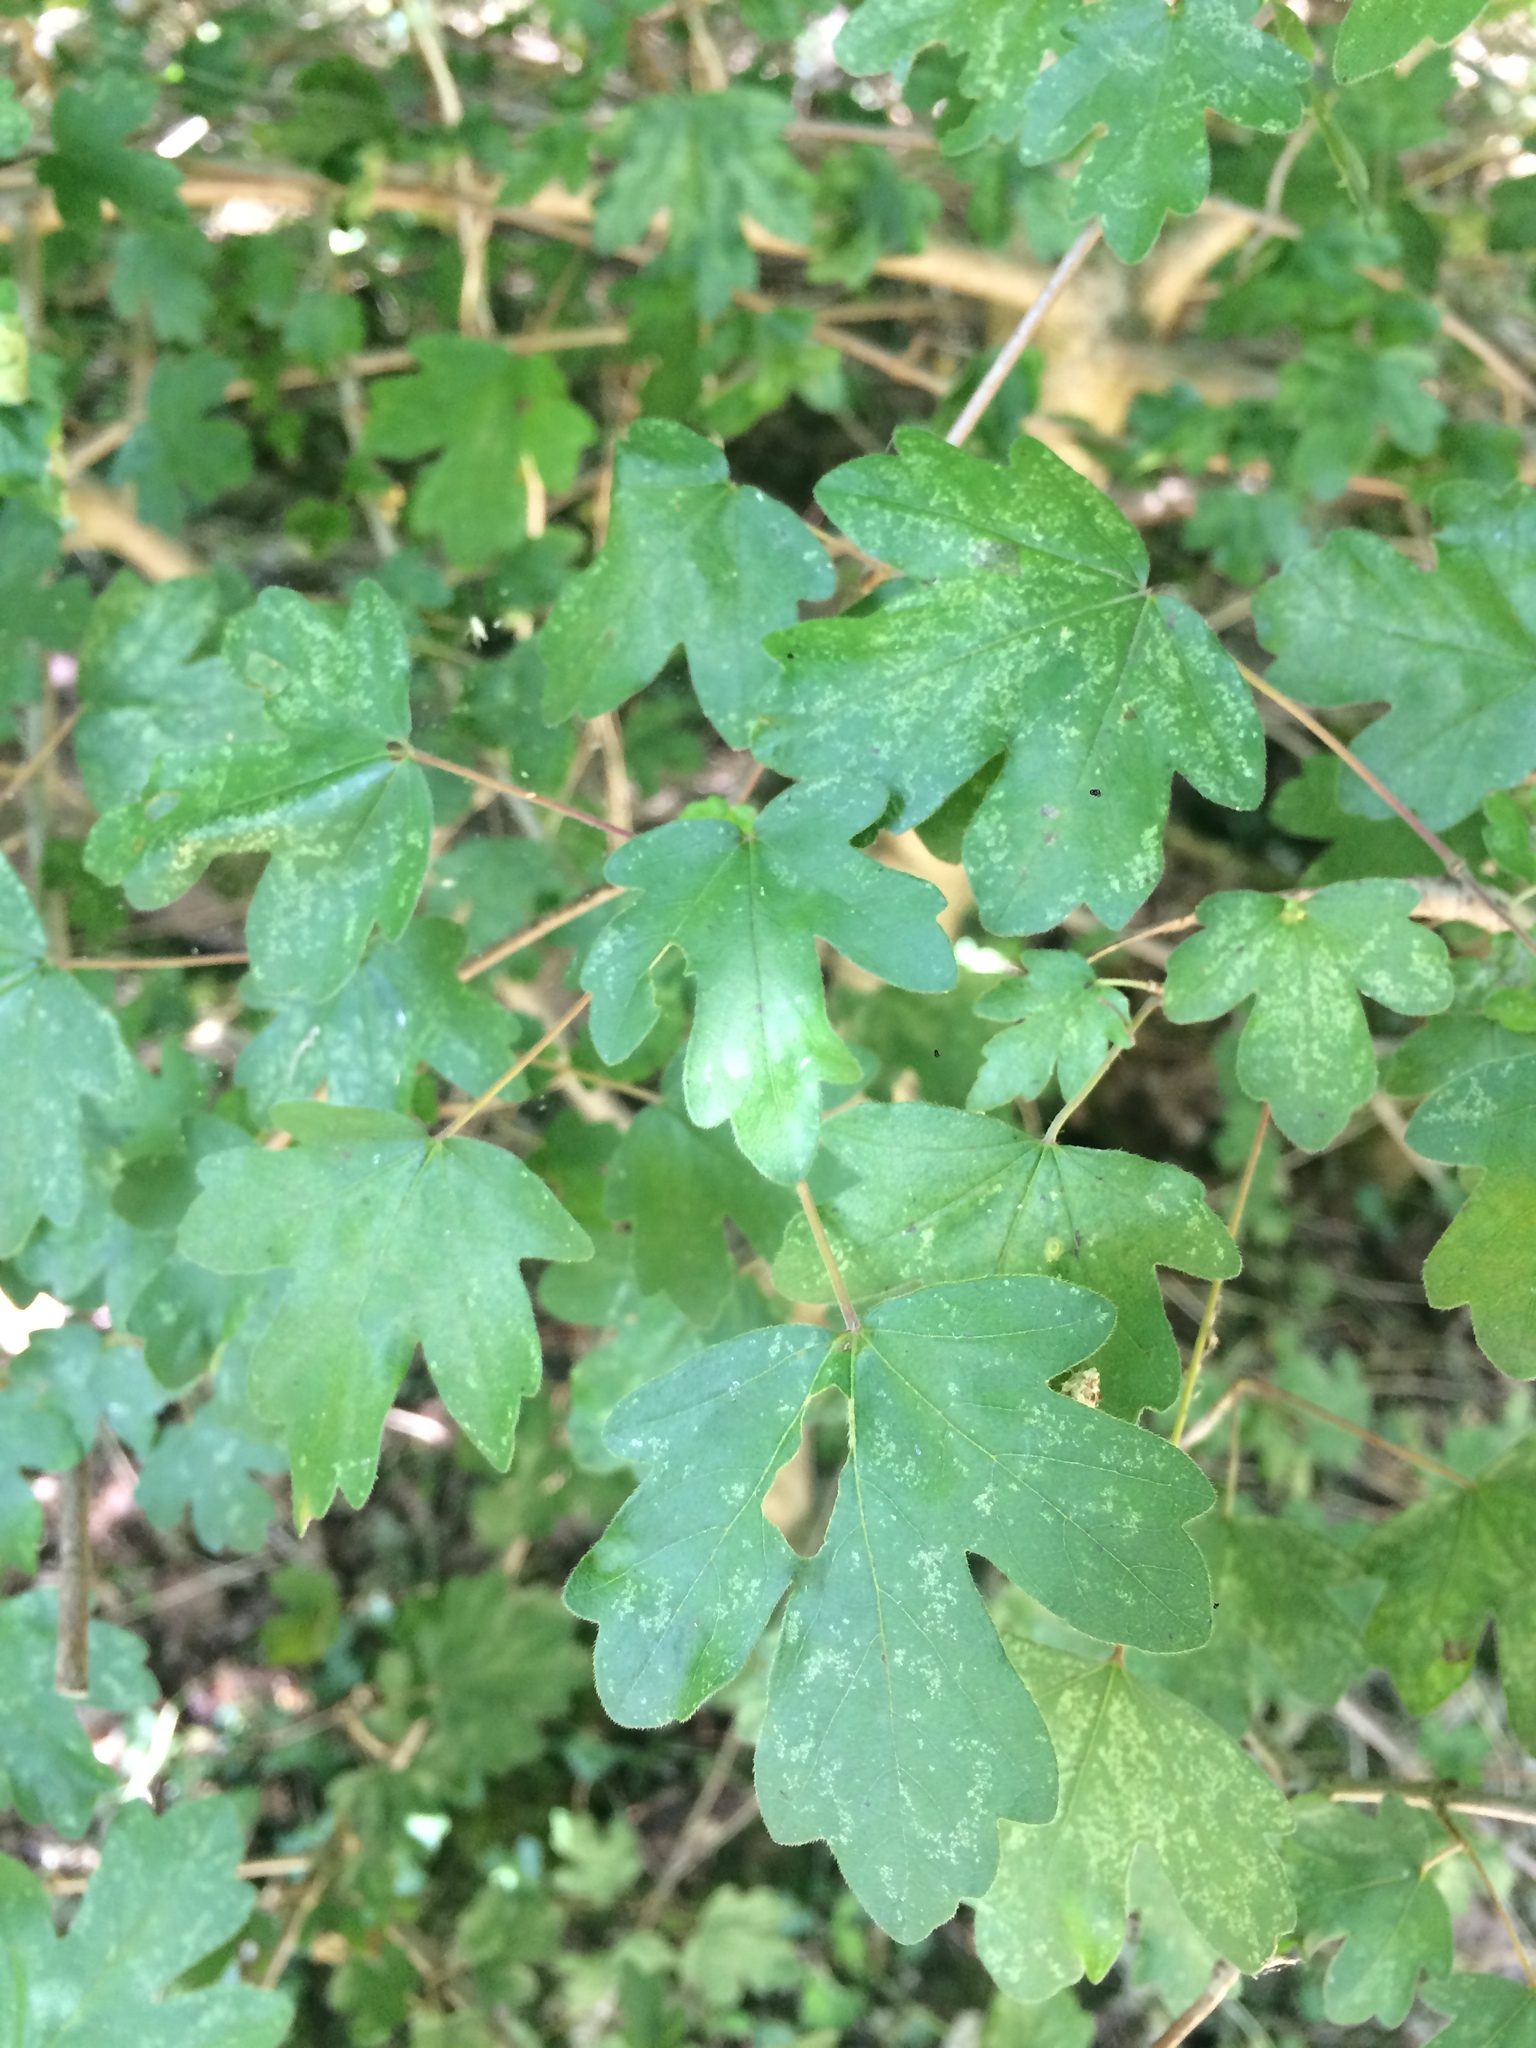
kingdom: Plantae
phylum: Tracheophyta
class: Magnoliopsida
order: Sapindales
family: Sapindaceae
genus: Acer
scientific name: Acer campestre
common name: Field maple
